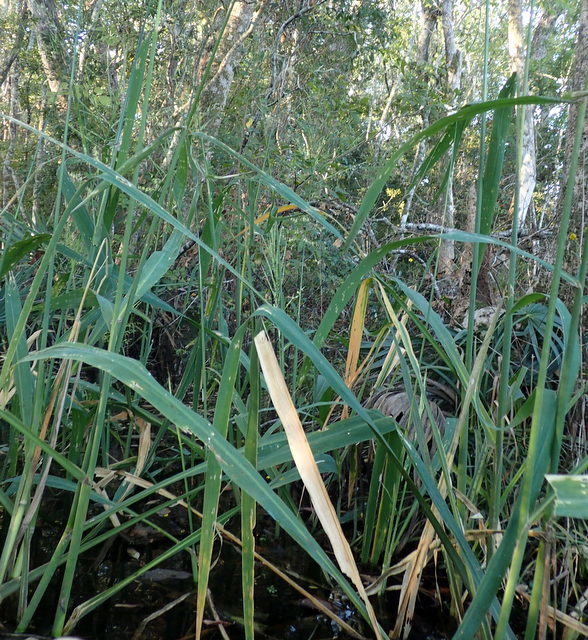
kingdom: Plantae
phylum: Tracheophyta
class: Liliopsida
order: Poales
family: Poaceae
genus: Zizania
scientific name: Zizania aquatica
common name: Annual wildrice
